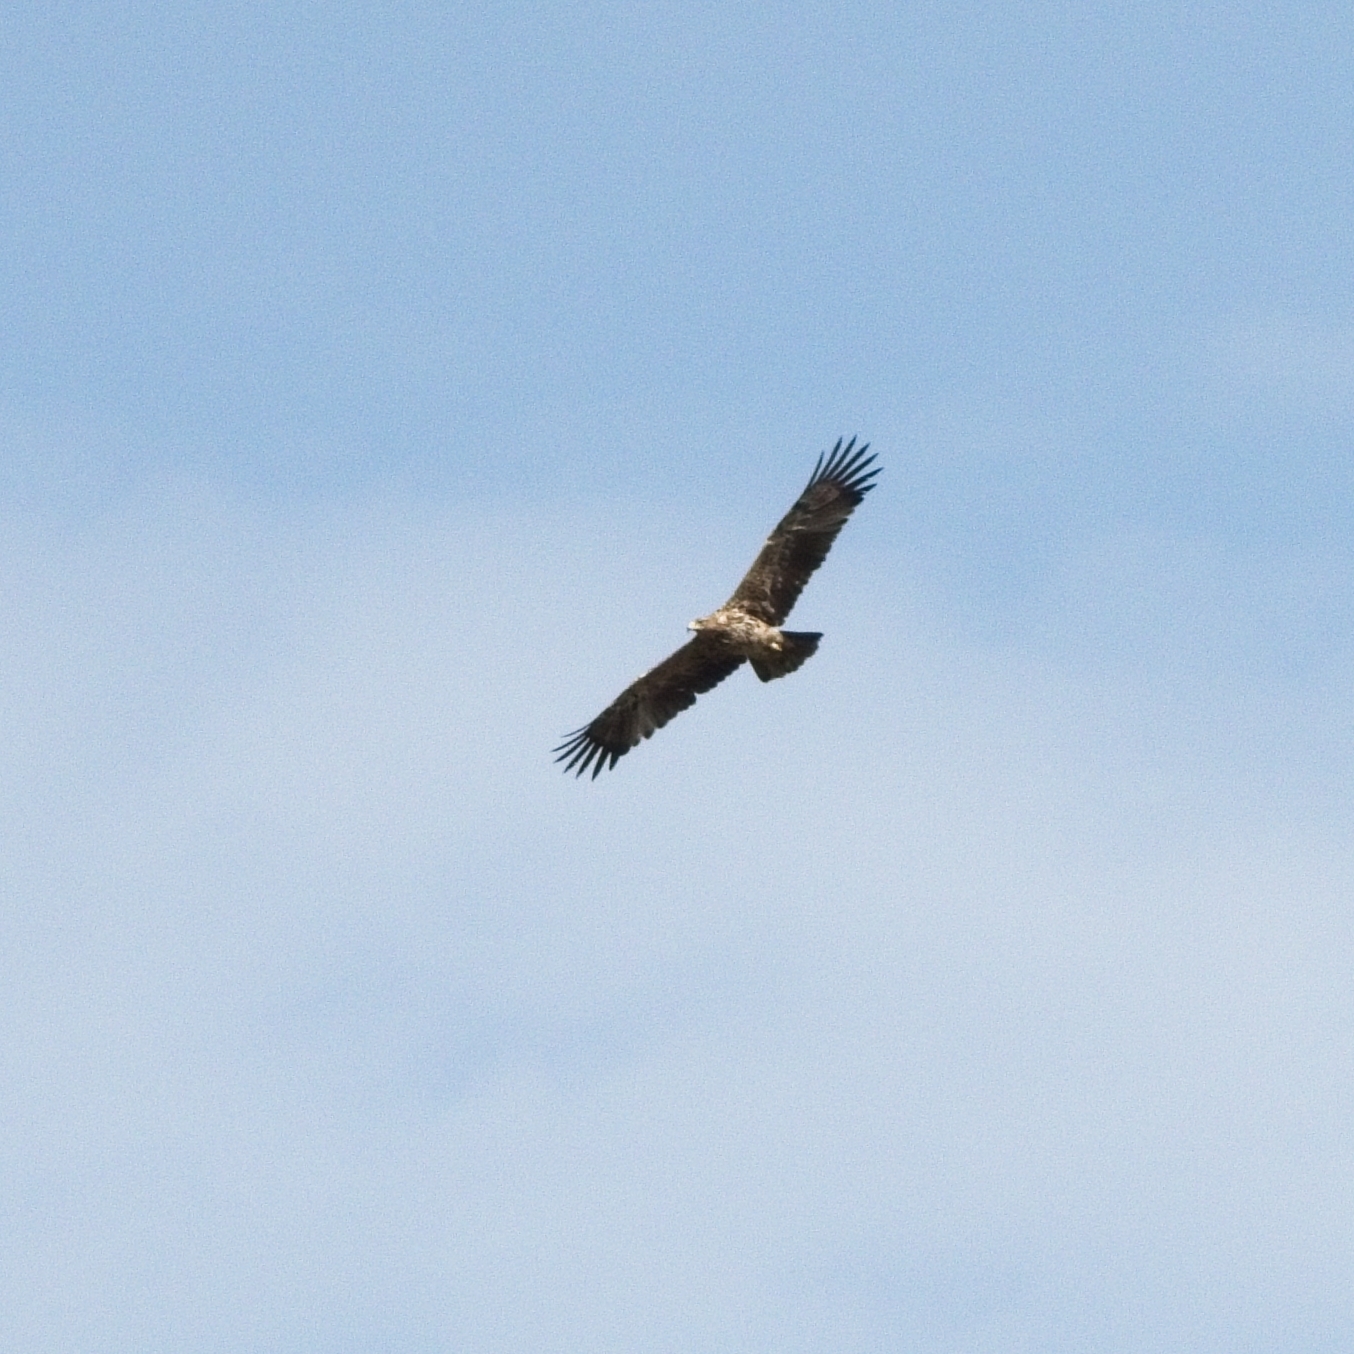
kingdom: Animalia
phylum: Chordata
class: Aves
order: Accipitriformes
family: Accipitridae
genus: Aquila
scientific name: Aquila heliaca
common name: Eastern imperial eagle
